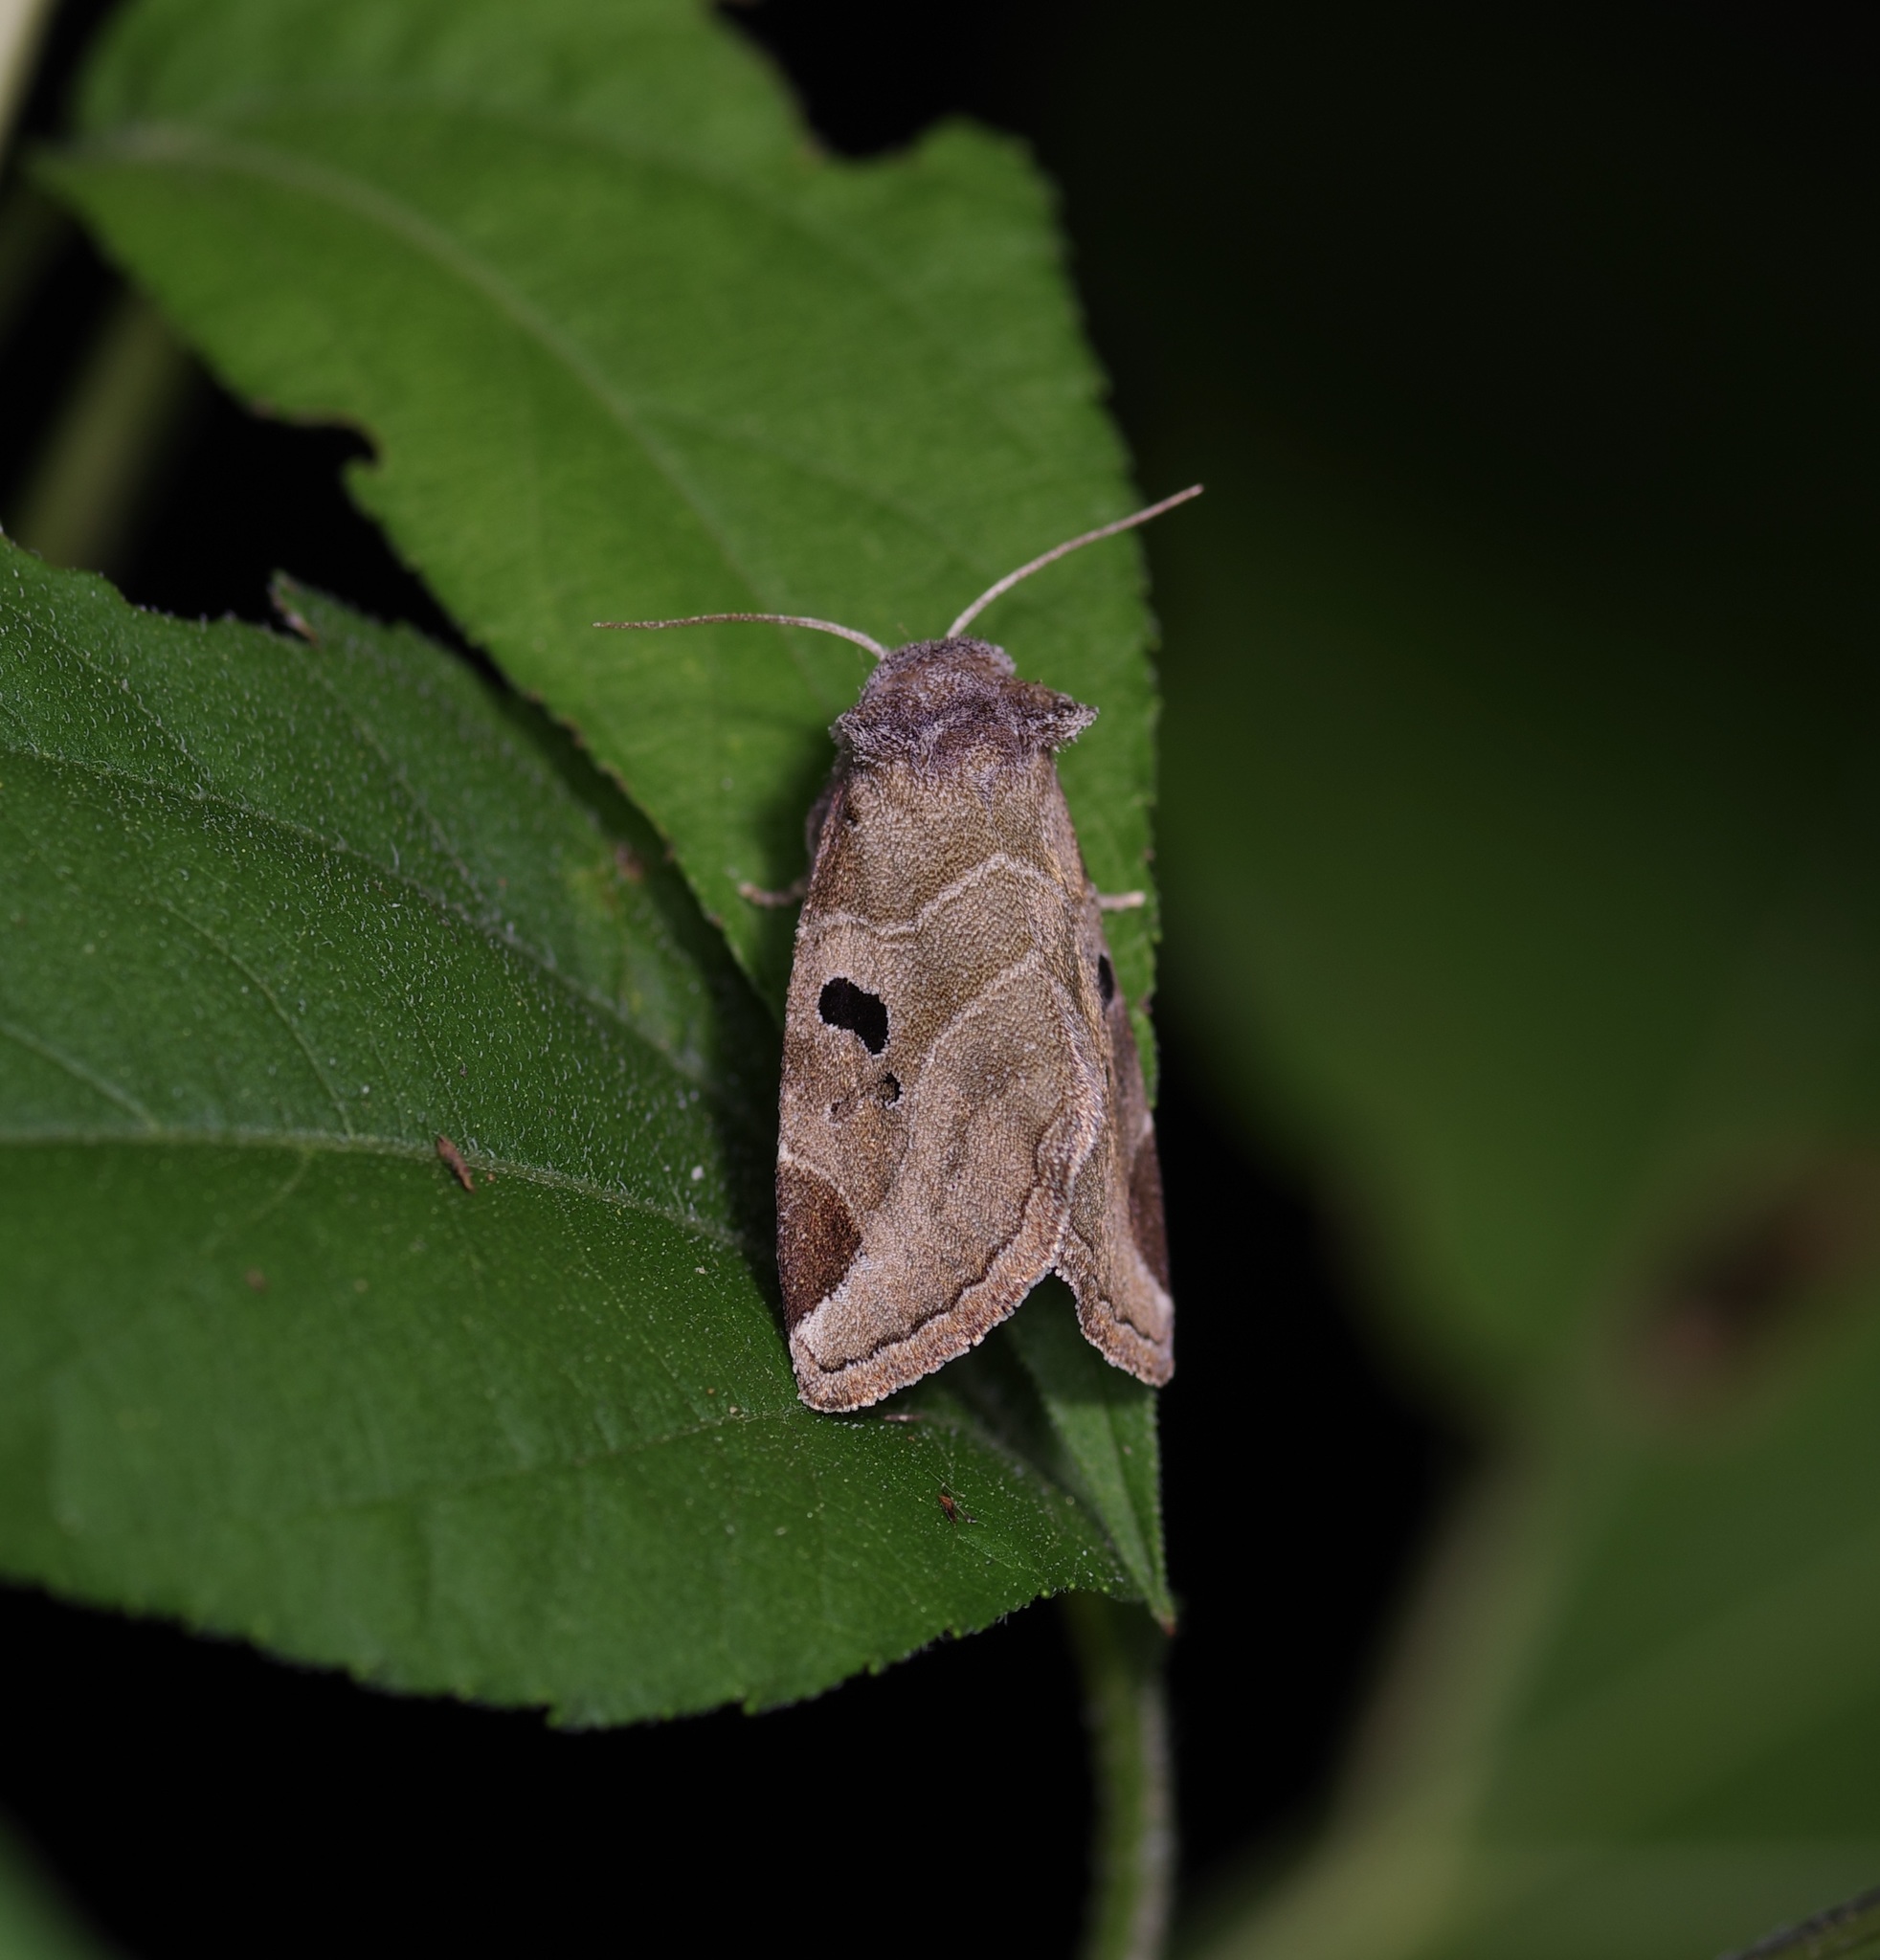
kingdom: Animalia
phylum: Arthropoda
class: Insecta
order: Lepidoptera
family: Noctuidae
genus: Plagiomimicus
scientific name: Plagiomimicus pityochromus
